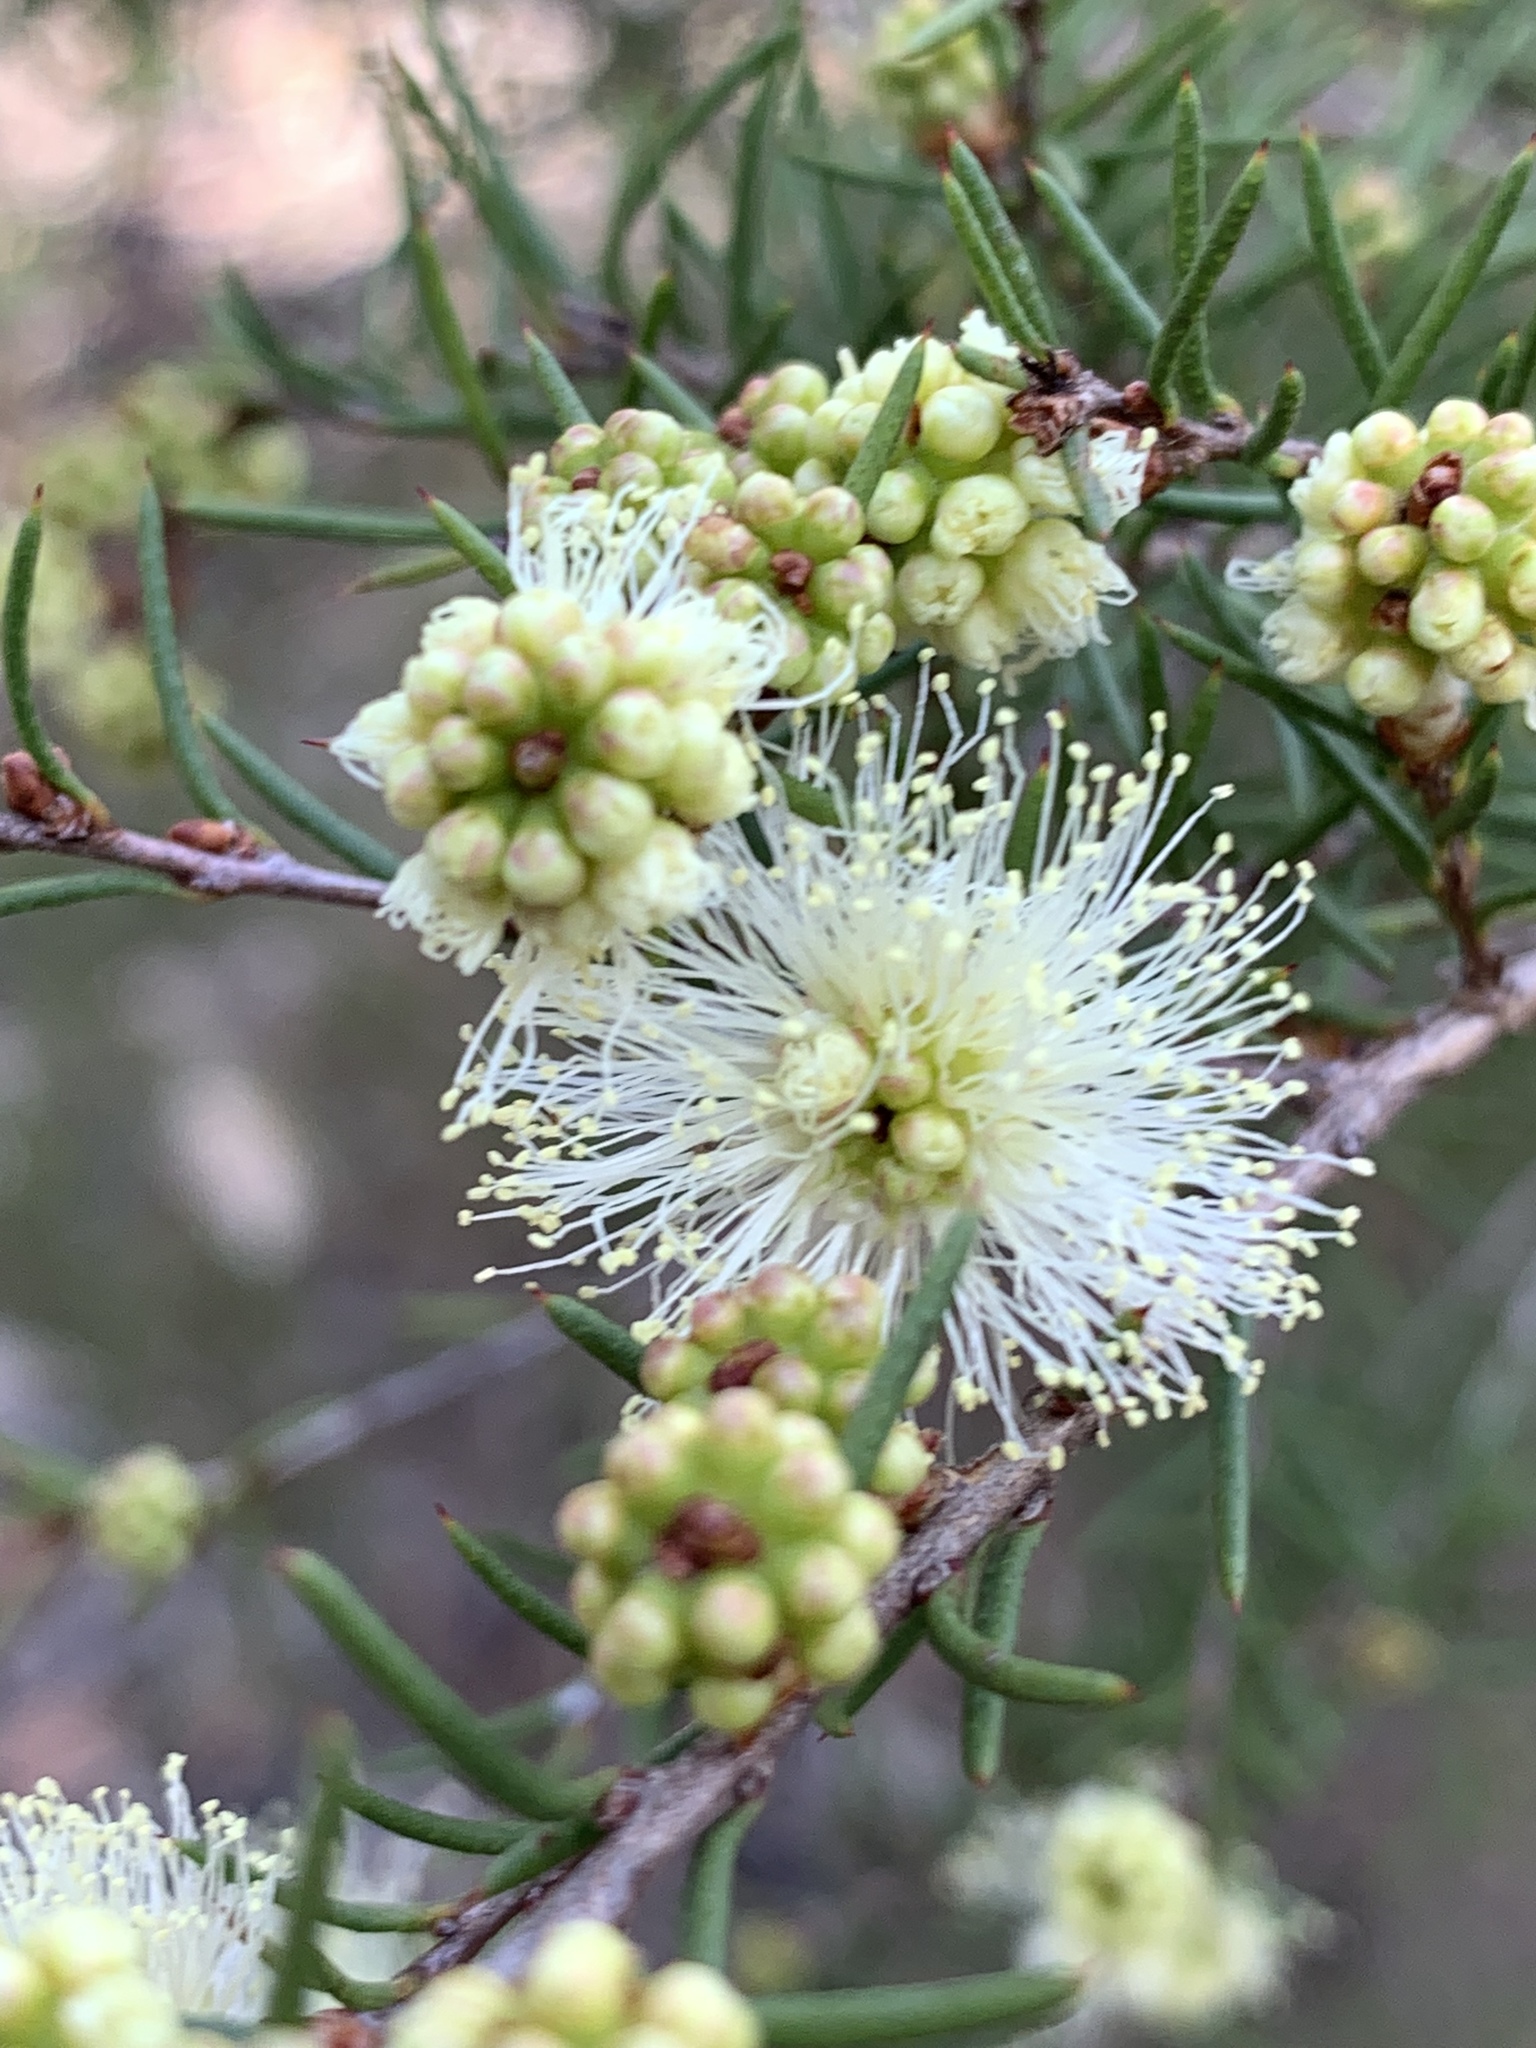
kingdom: Plantae
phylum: Tracheophyta
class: Magnoliopsida
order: Myrtales
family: Myrtaceae
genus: Melaleuca
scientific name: Melaleuca nodosa
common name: Prickly-leaf paperbark
